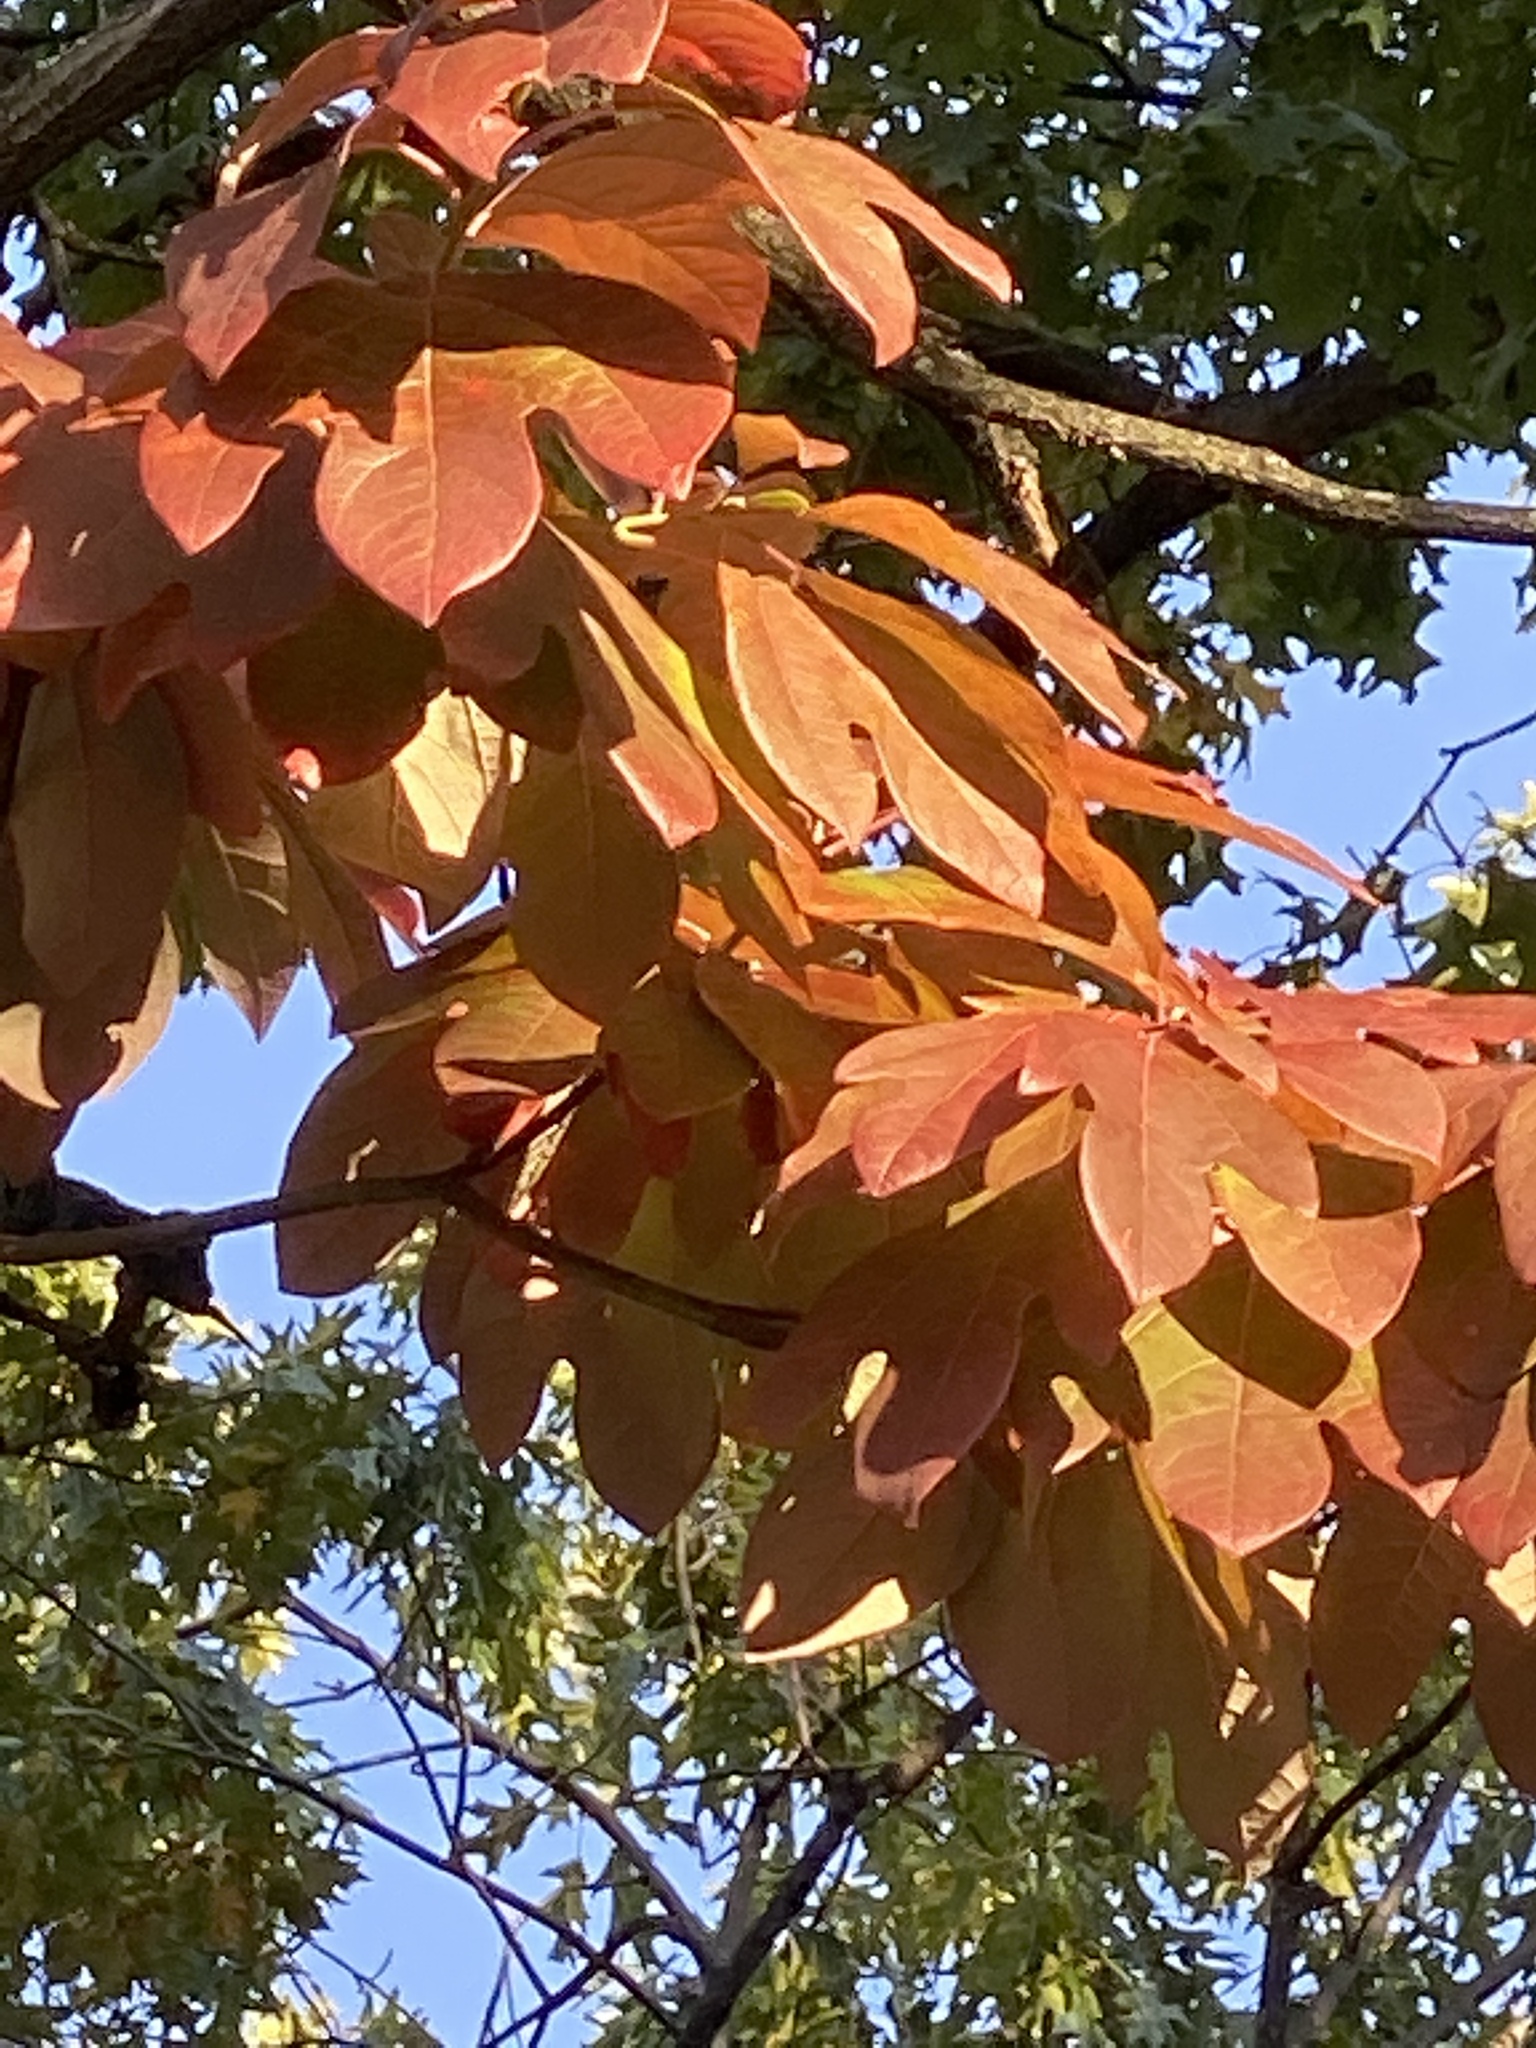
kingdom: Plantae
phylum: Tracheophyta
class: Magnoliopsida
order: Laurales
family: Lauraceae
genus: Sassafras
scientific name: Sassafras albidum
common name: Sassafras
